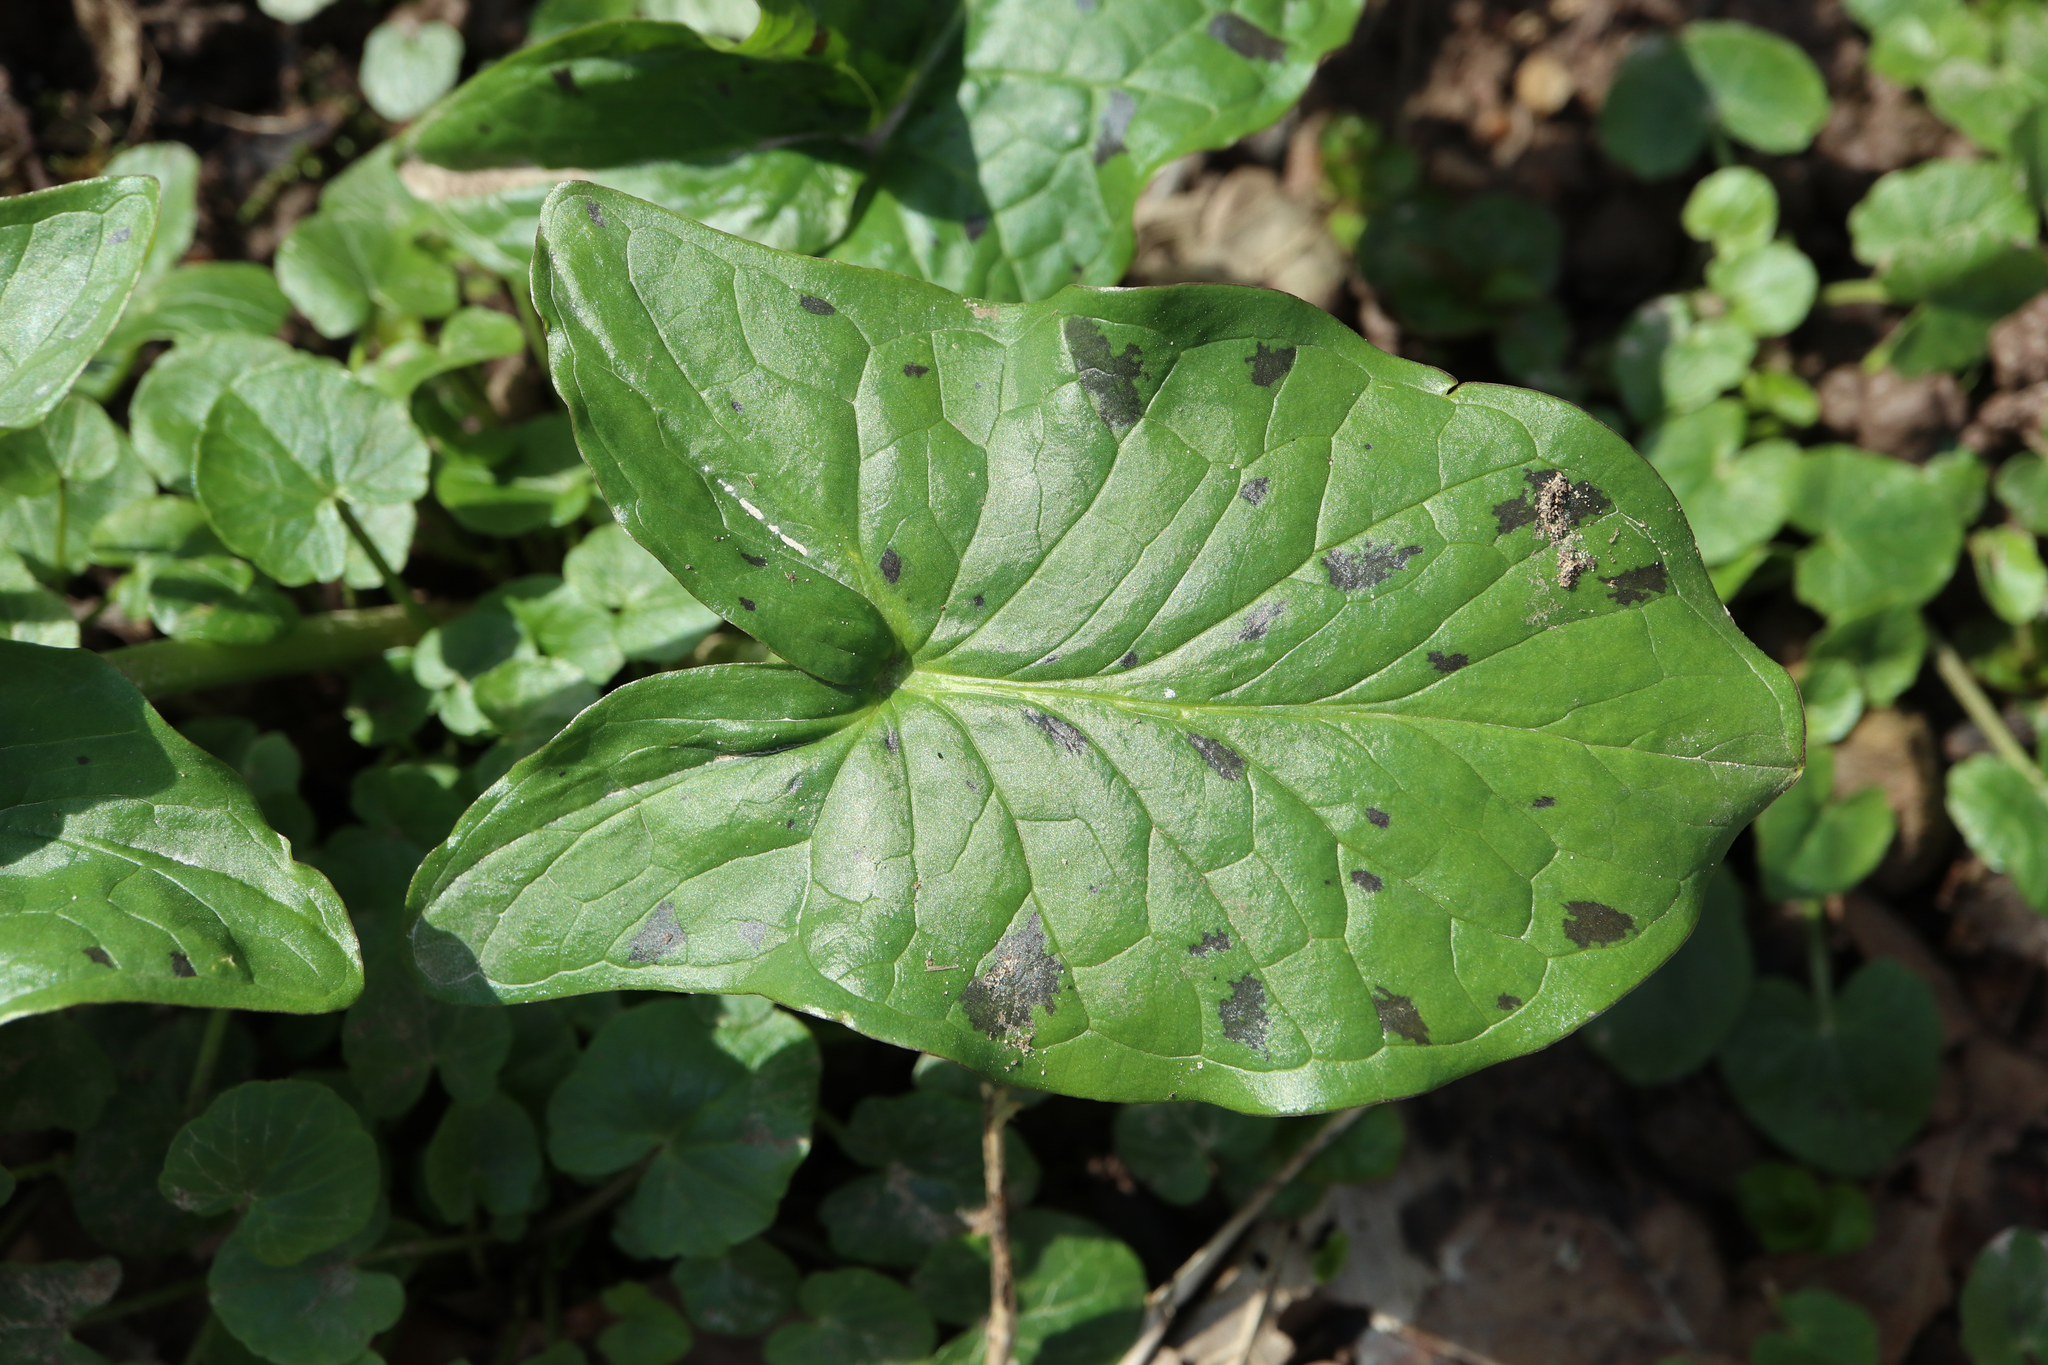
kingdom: Plantae
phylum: Tracheophyta
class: Liliopsida
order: Alismatales
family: Araceae
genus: Arum
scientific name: Arum maculatum
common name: Lords-and-ladies
